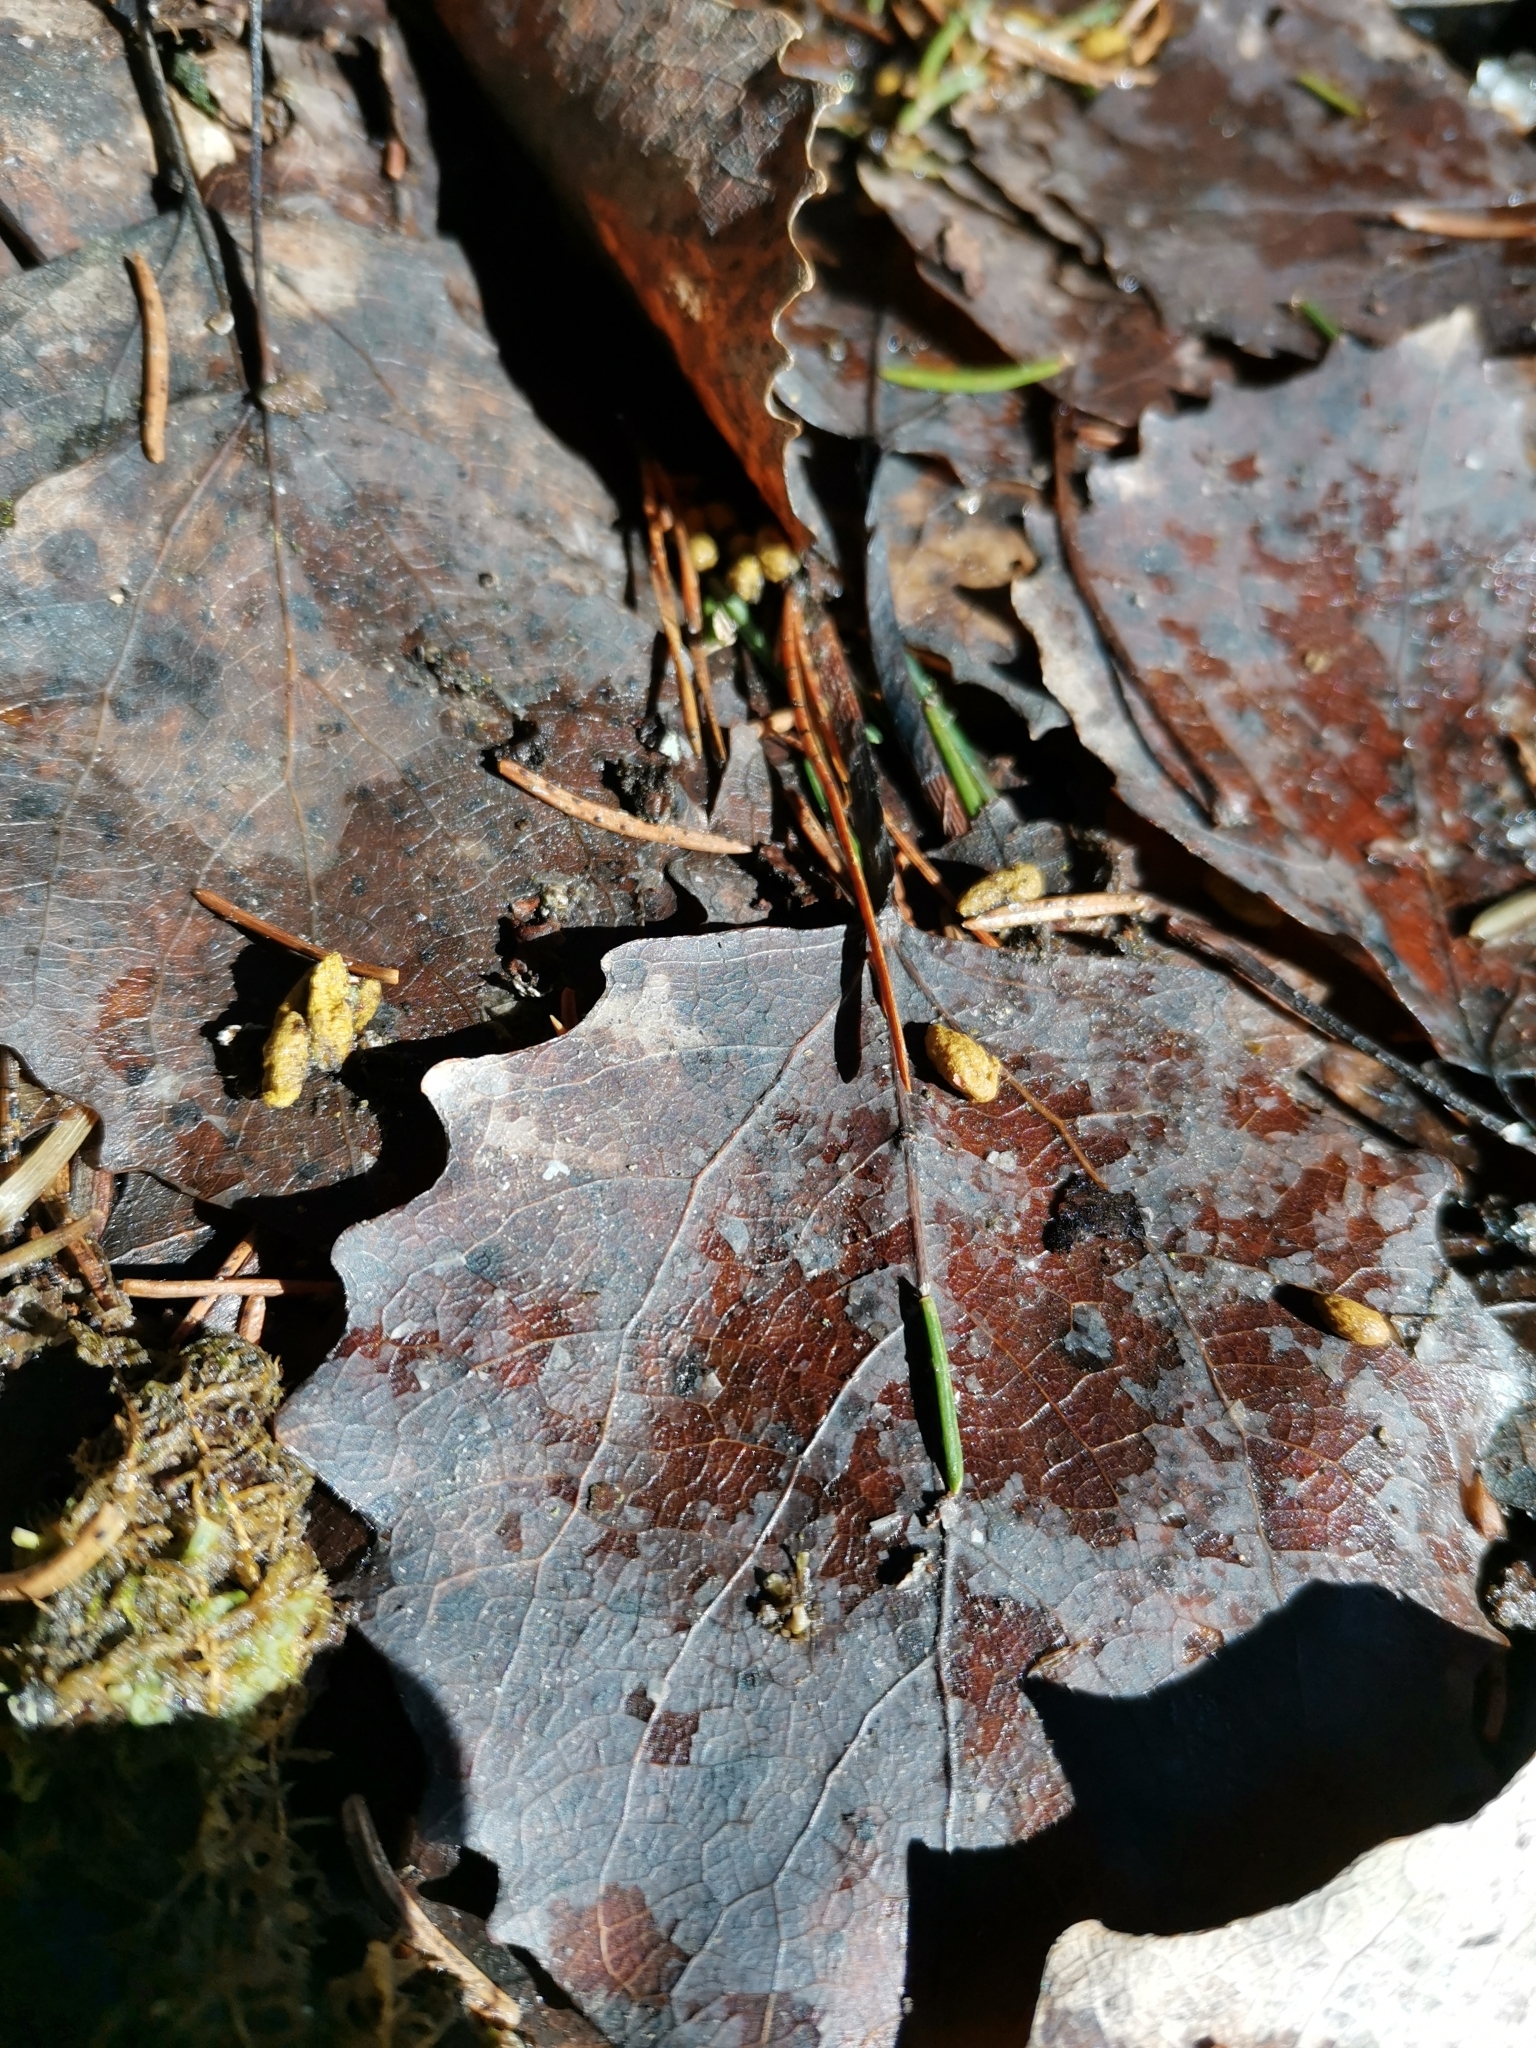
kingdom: Animalia
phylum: Chordata
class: Mammalia
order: Rodentia
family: Sciuridae
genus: Pteromys
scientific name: Pteromys volans
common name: Siberian flying squirrel
